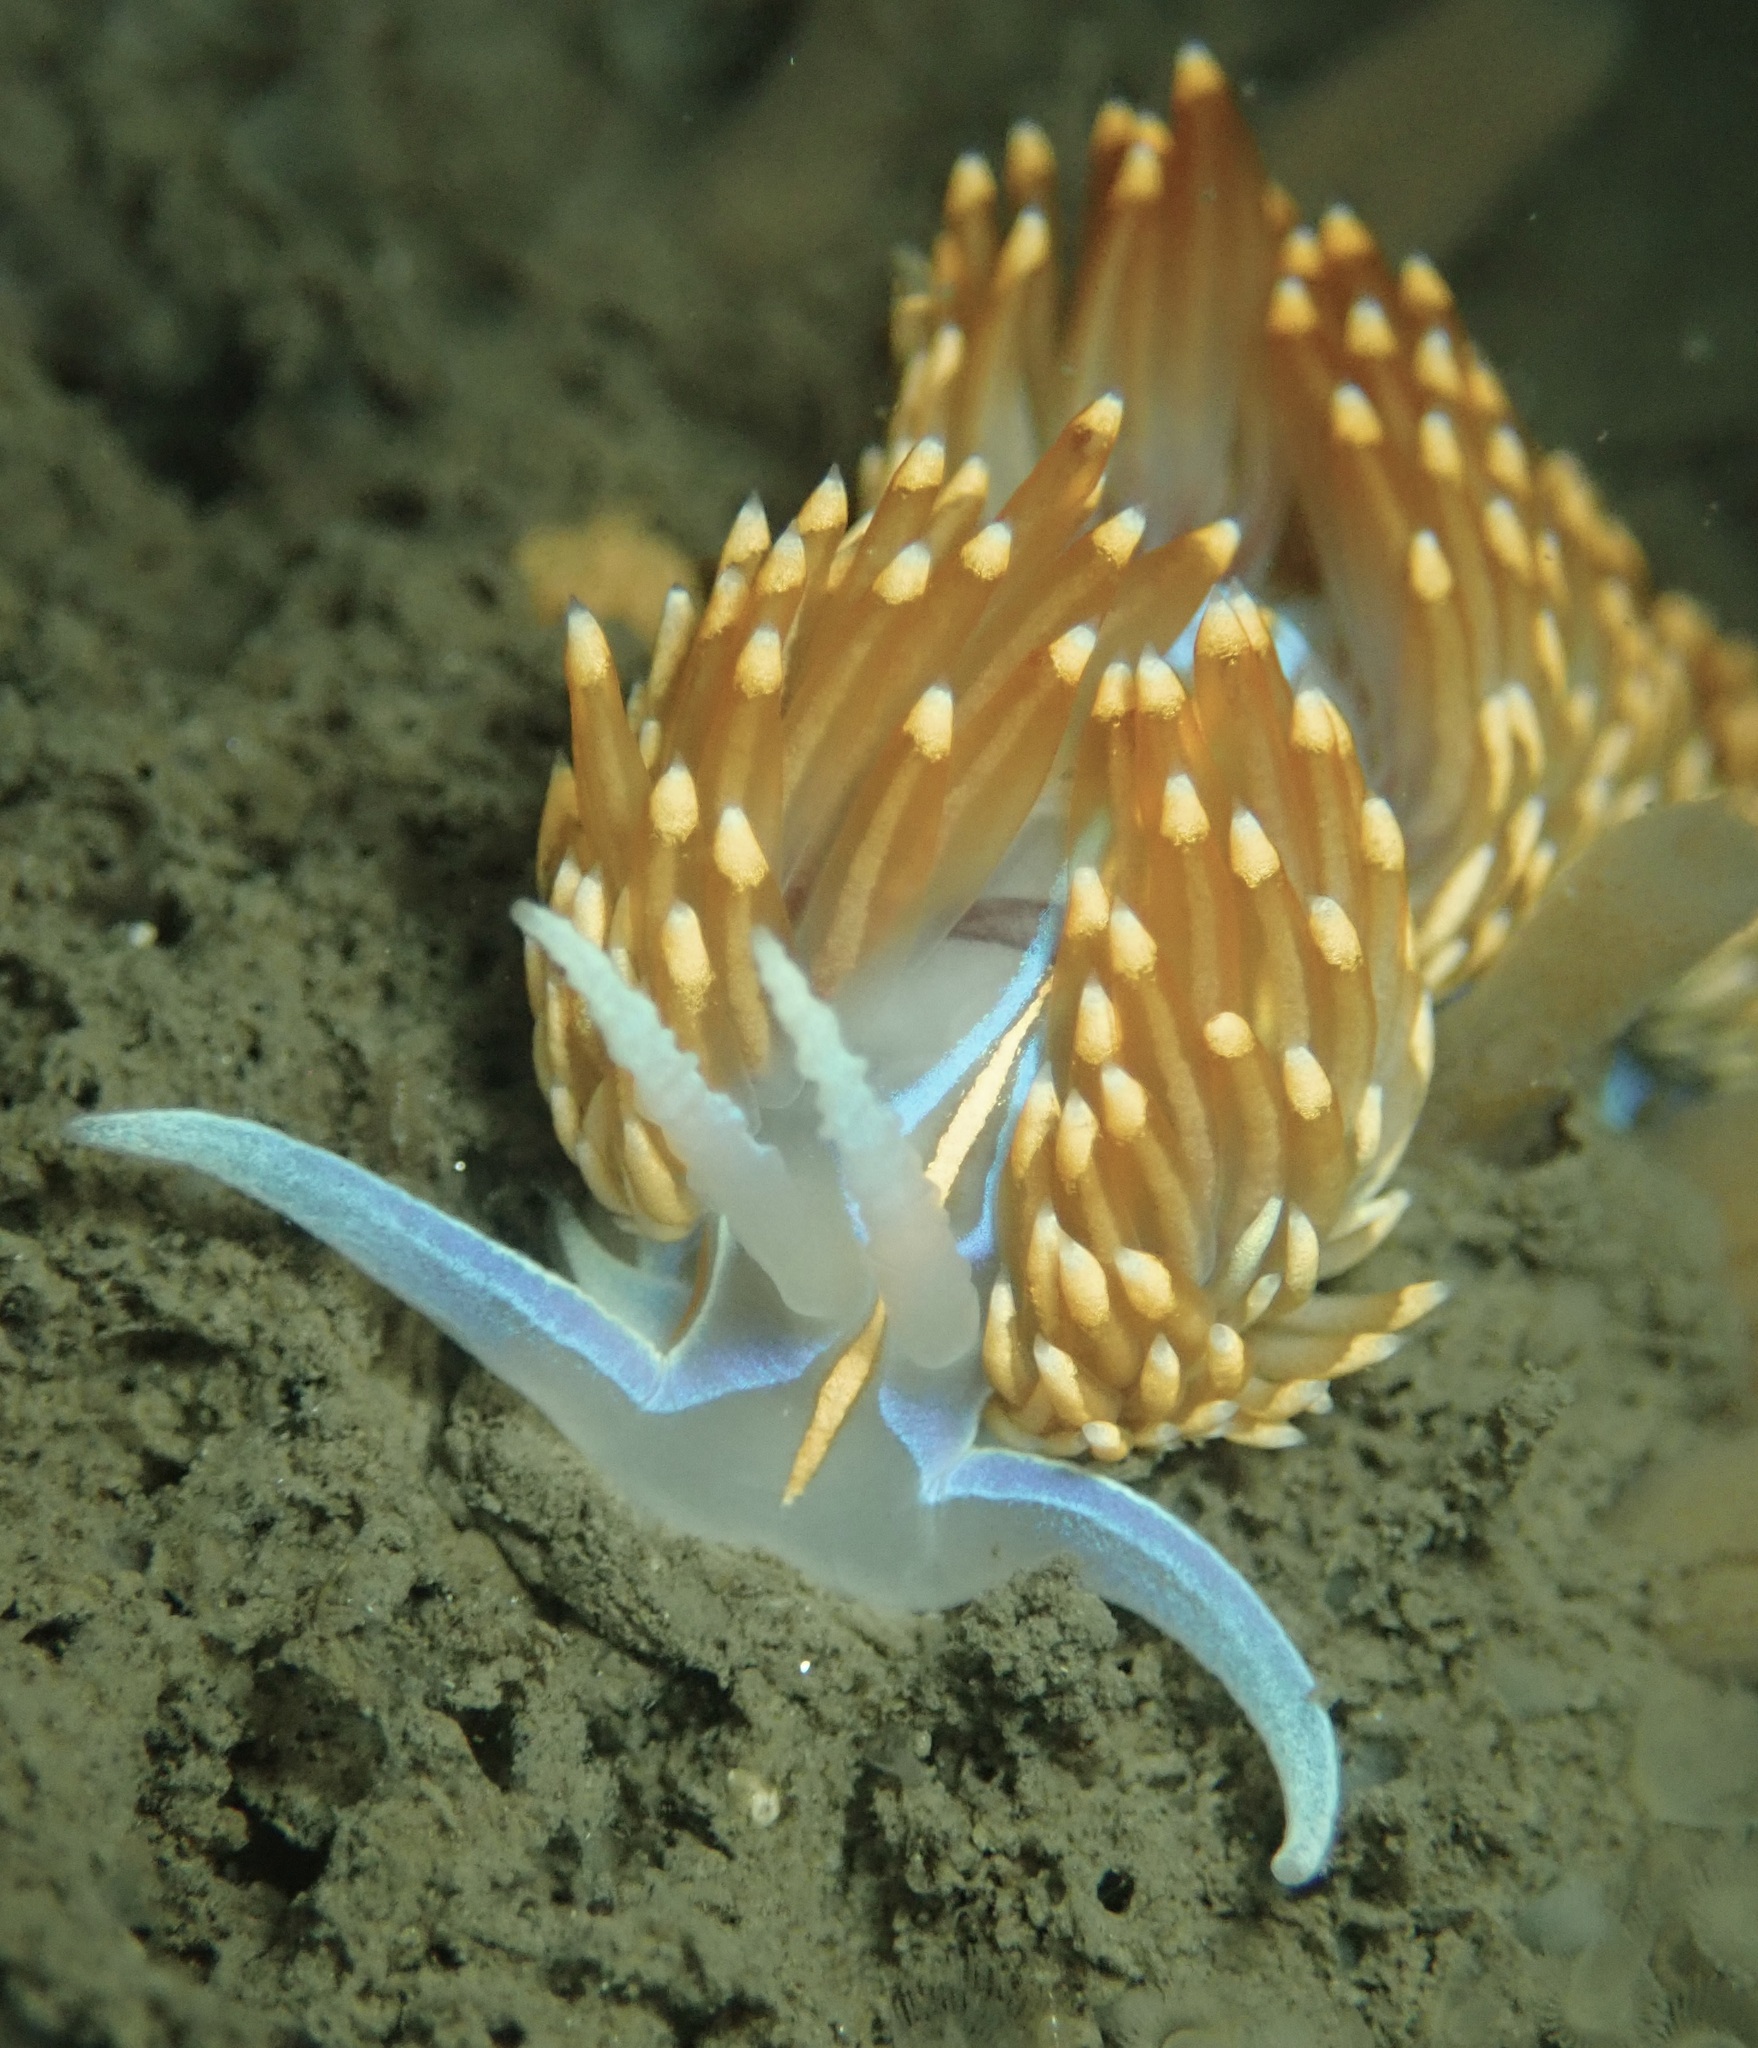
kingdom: Animalia
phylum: Mollusca
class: Gastropoda
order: Nudibranchia
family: Myrrhinidae
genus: Hermissenda
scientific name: Hermissenda opalescens
